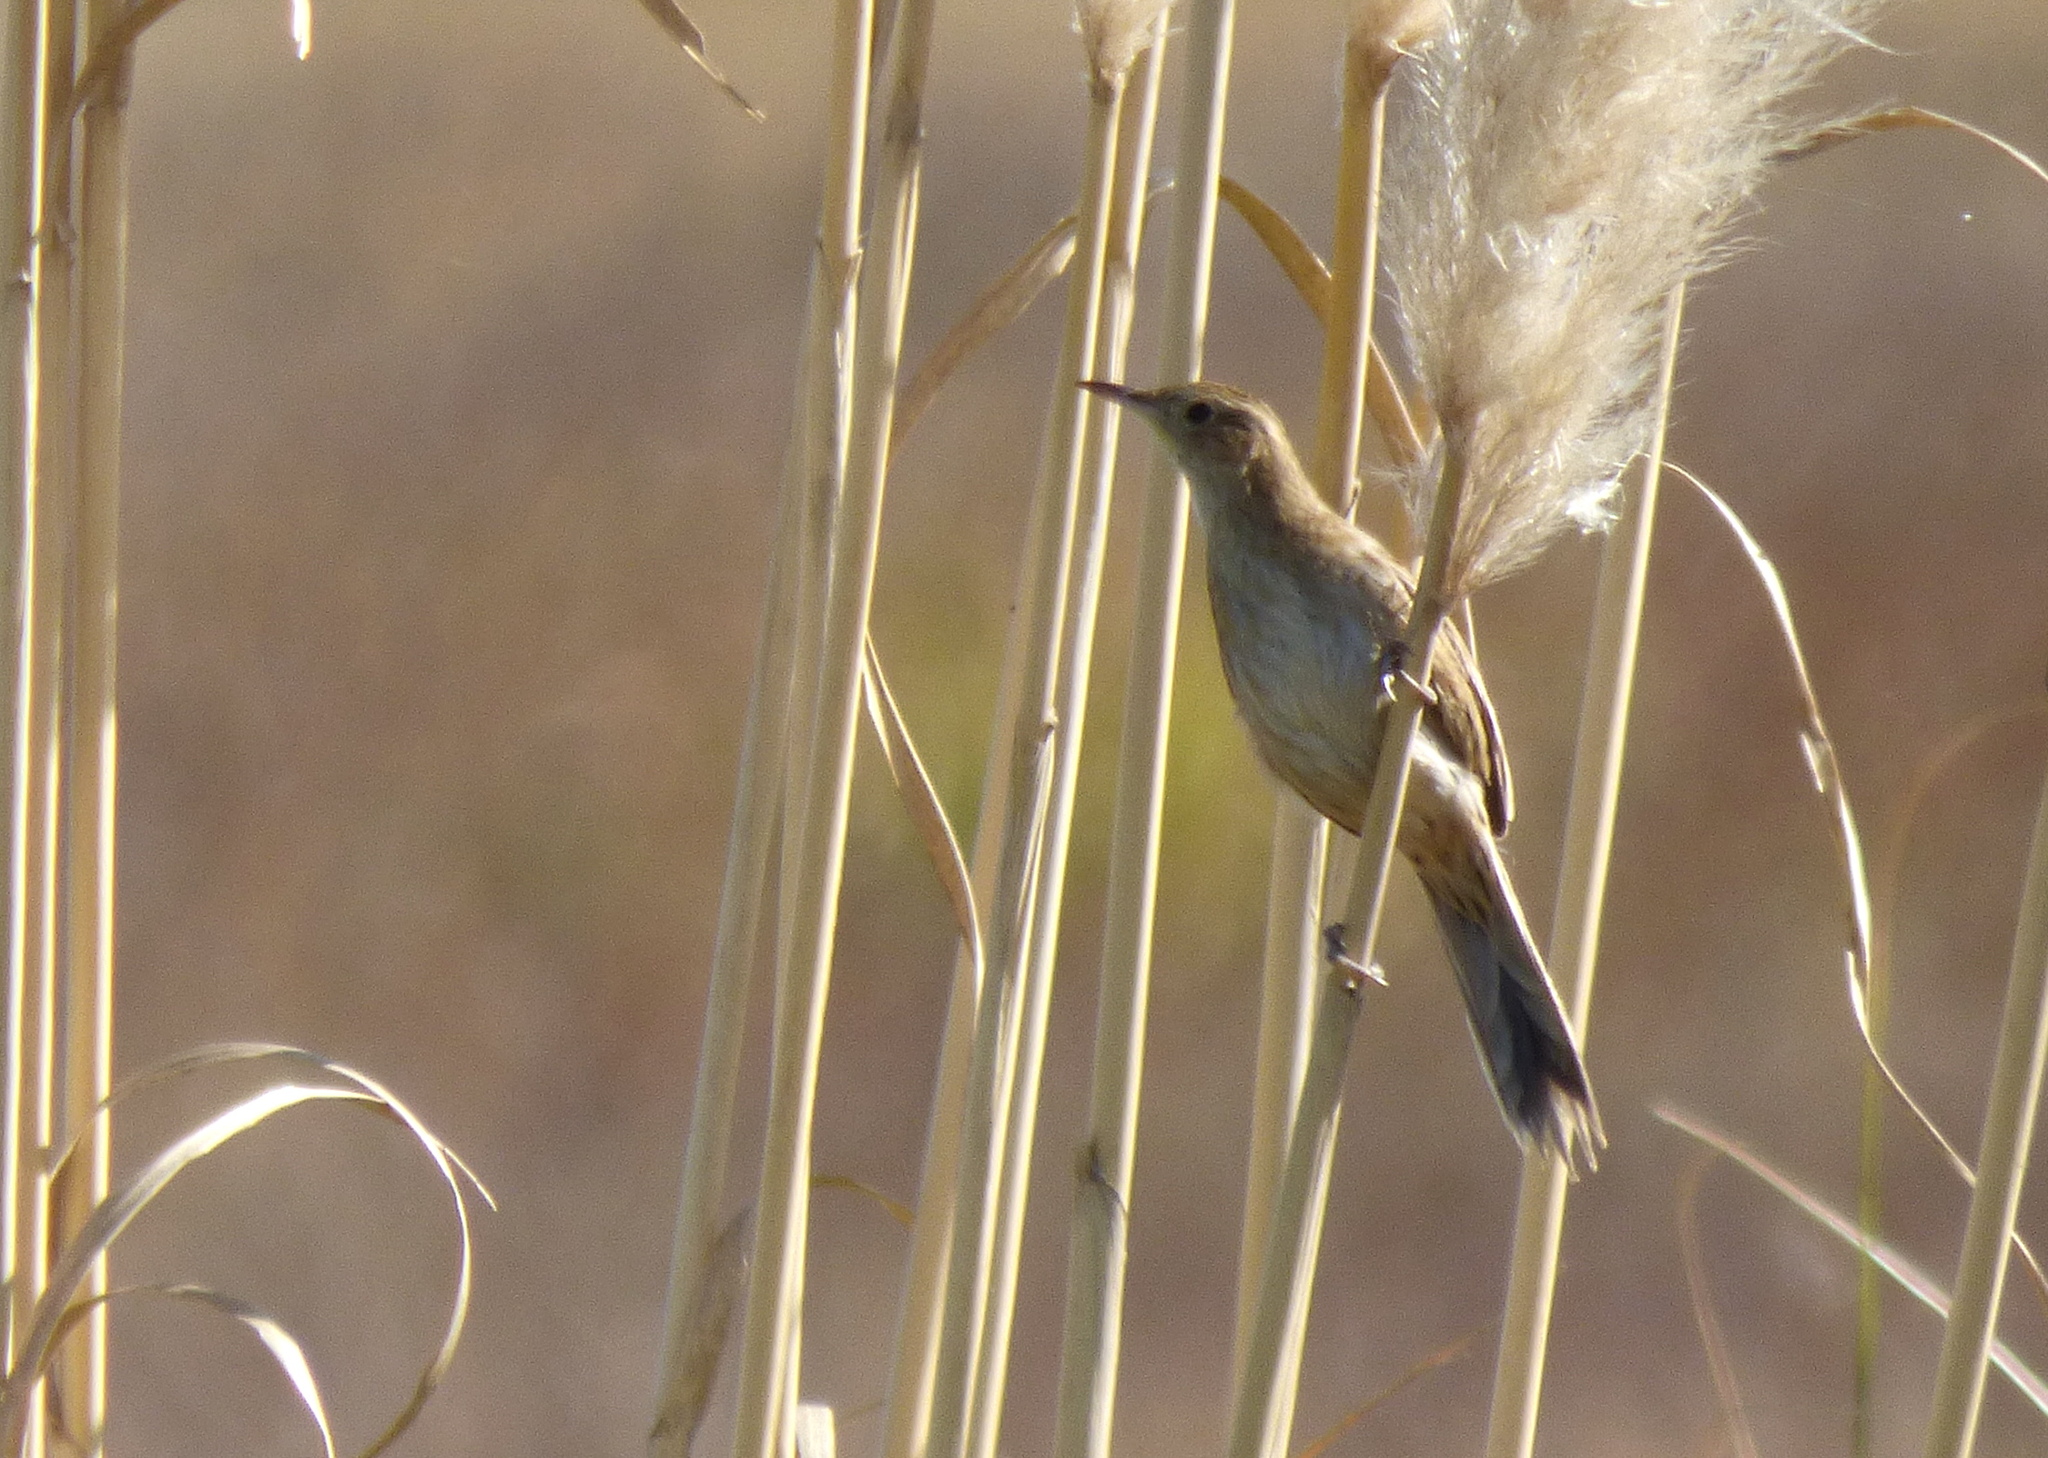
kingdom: Animalia
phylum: Chordata
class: Aves
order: Passeriformes
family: Furnariidae
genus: Asthenes
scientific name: Asthenes hudsoni
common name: Hudson's canastero
